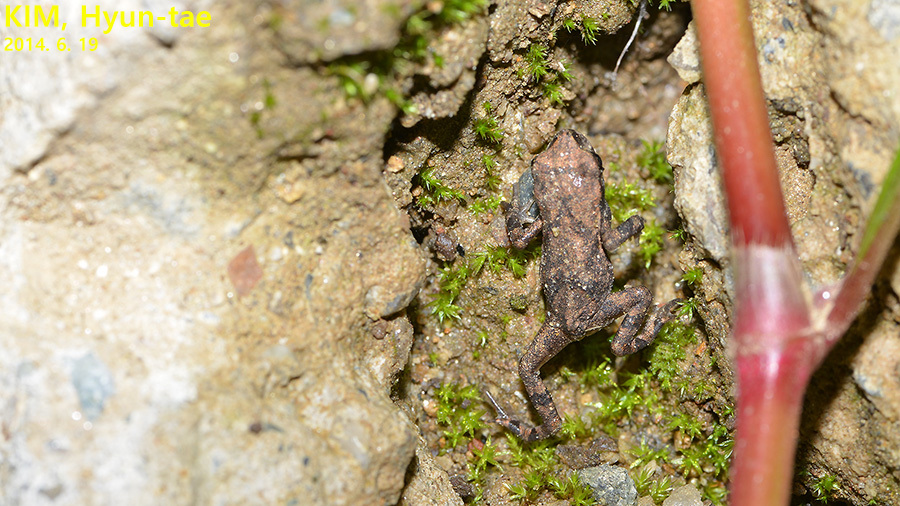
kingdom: Animalia
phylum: Chordata
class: Amphibia
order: Anura
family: Bombinatoridae
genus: Bombina
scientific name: Bombina orientalis
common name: Oriental firebelly toad
